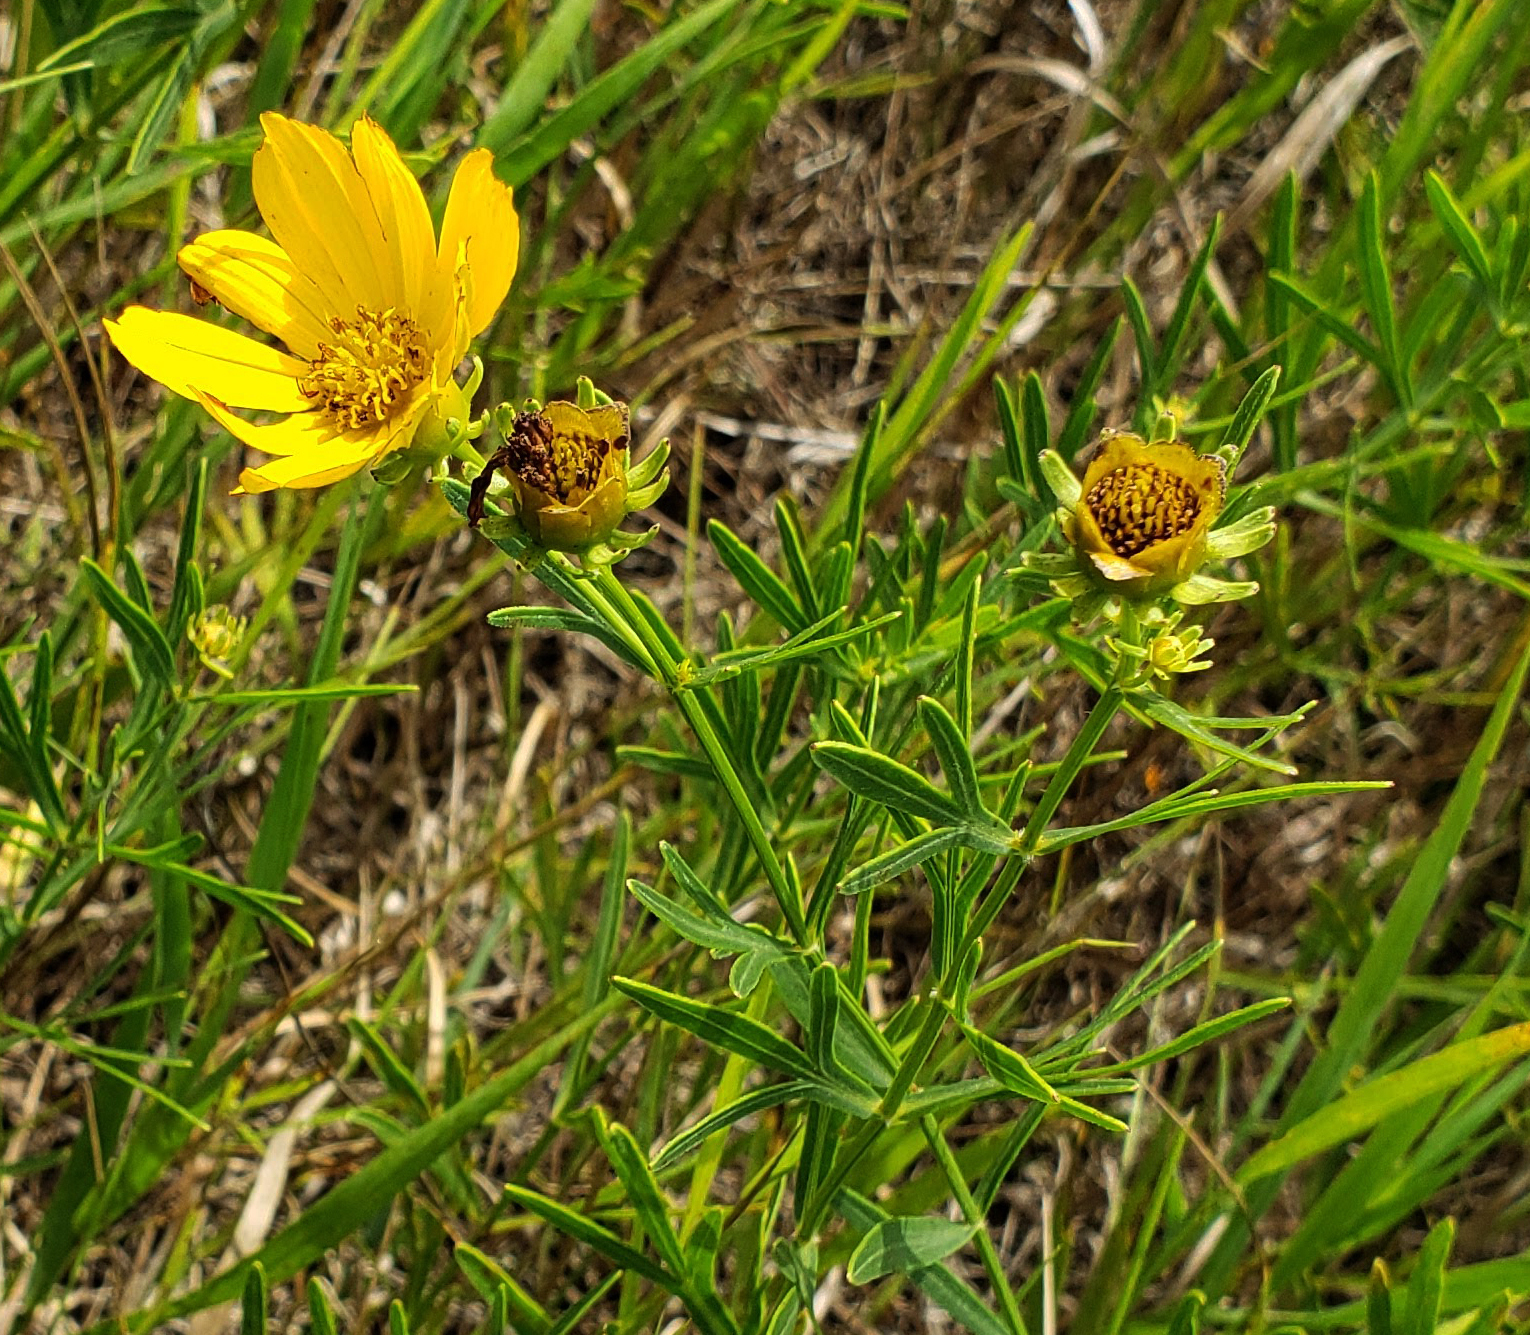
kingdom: Plantae
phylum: Tracheophyta
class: Magnoliopsida
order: Asterales
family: Asteraceae
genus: Coreopsis
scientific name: Coreopsis palmata
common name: Prairie coreopsis
